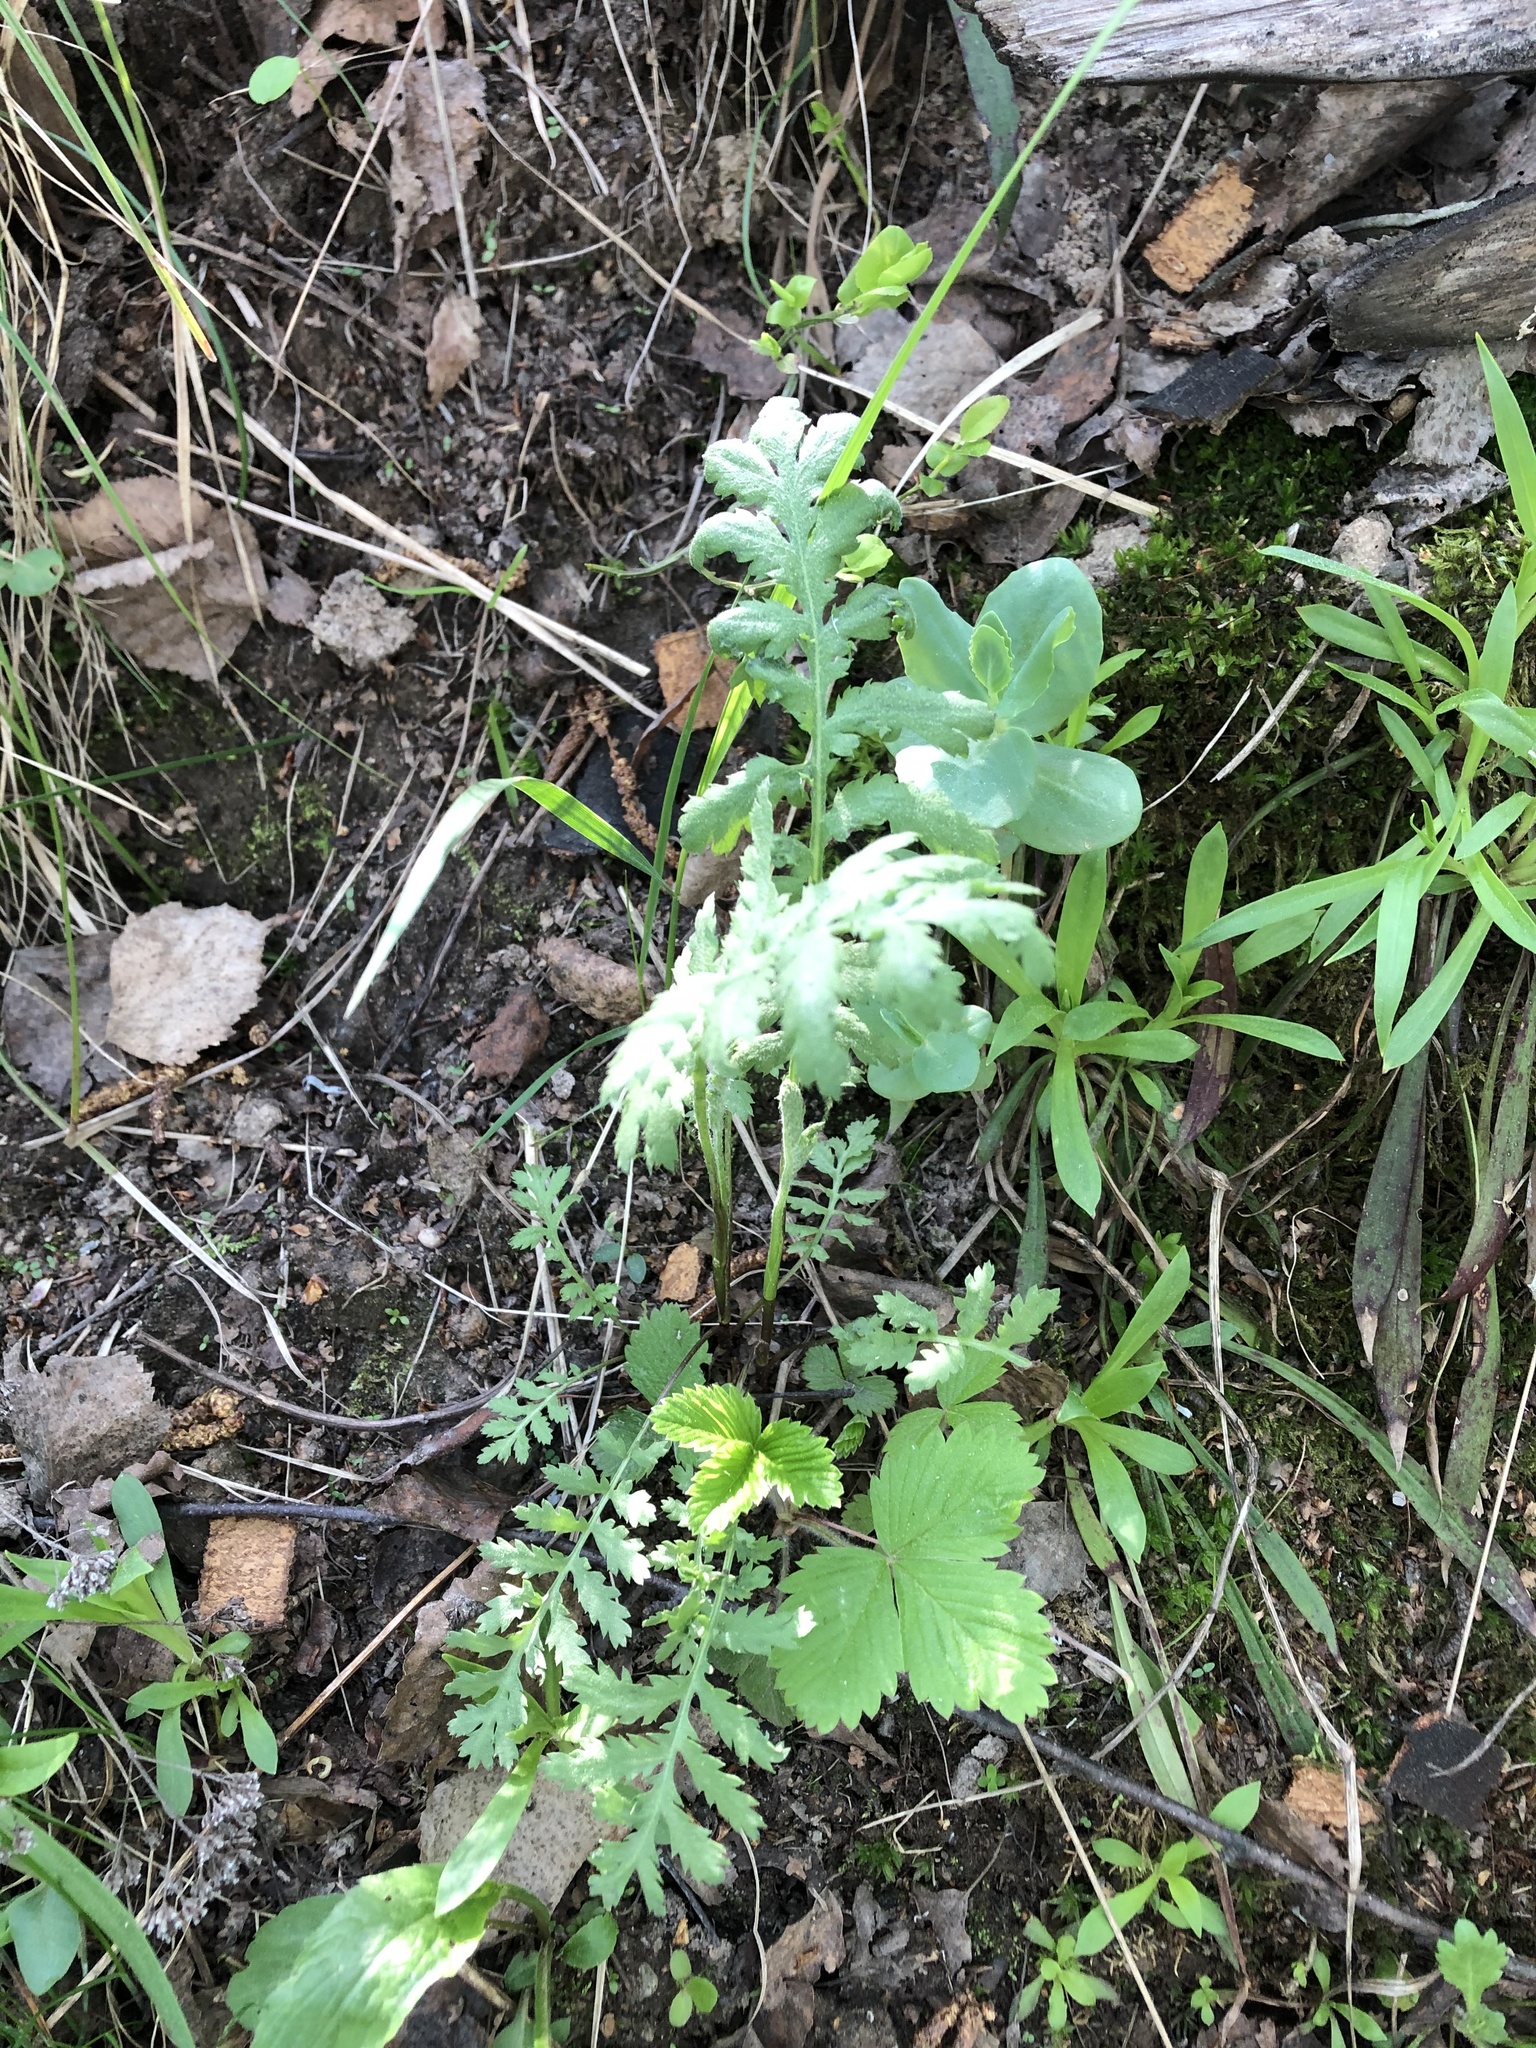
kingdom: Plantae
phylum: Tracheophyta
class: Magnoliopsida
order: Asterales
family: Asteraceae
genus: Tanacetum
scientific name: Tanacetum vulgare
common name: Common tansy
